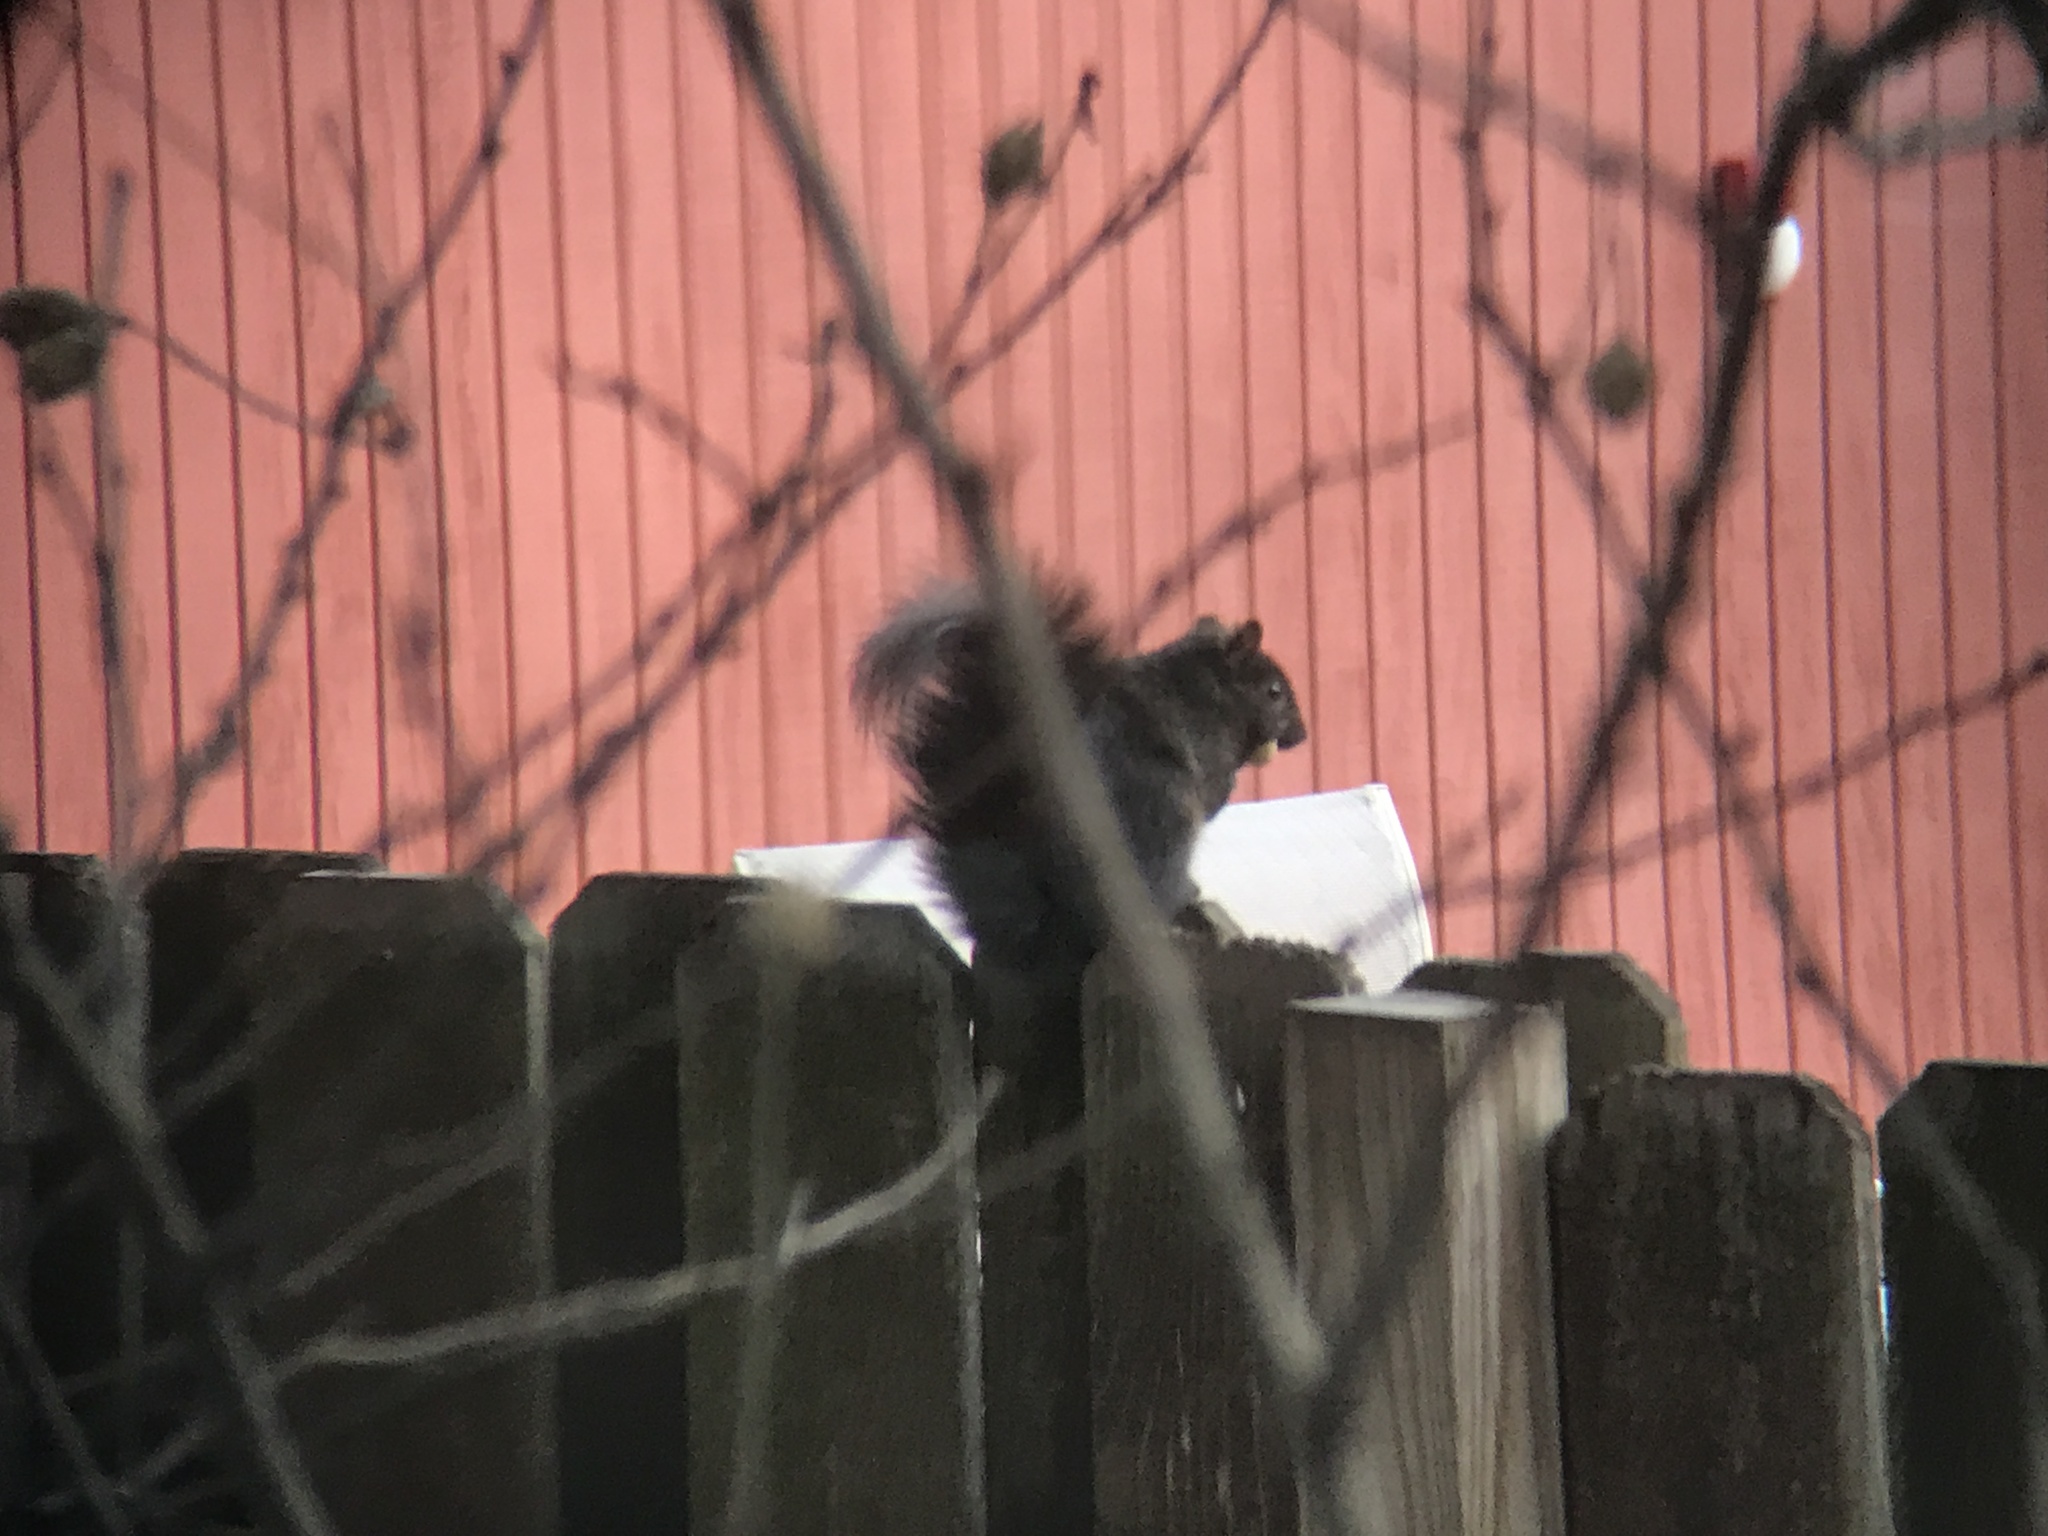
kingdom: Animalia
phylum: Chordata
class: Mammalia
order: Rodentia
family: Sciuridae
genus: Sciurus
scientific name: Sciurus carolinensis
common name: Eastern gray squirrel
